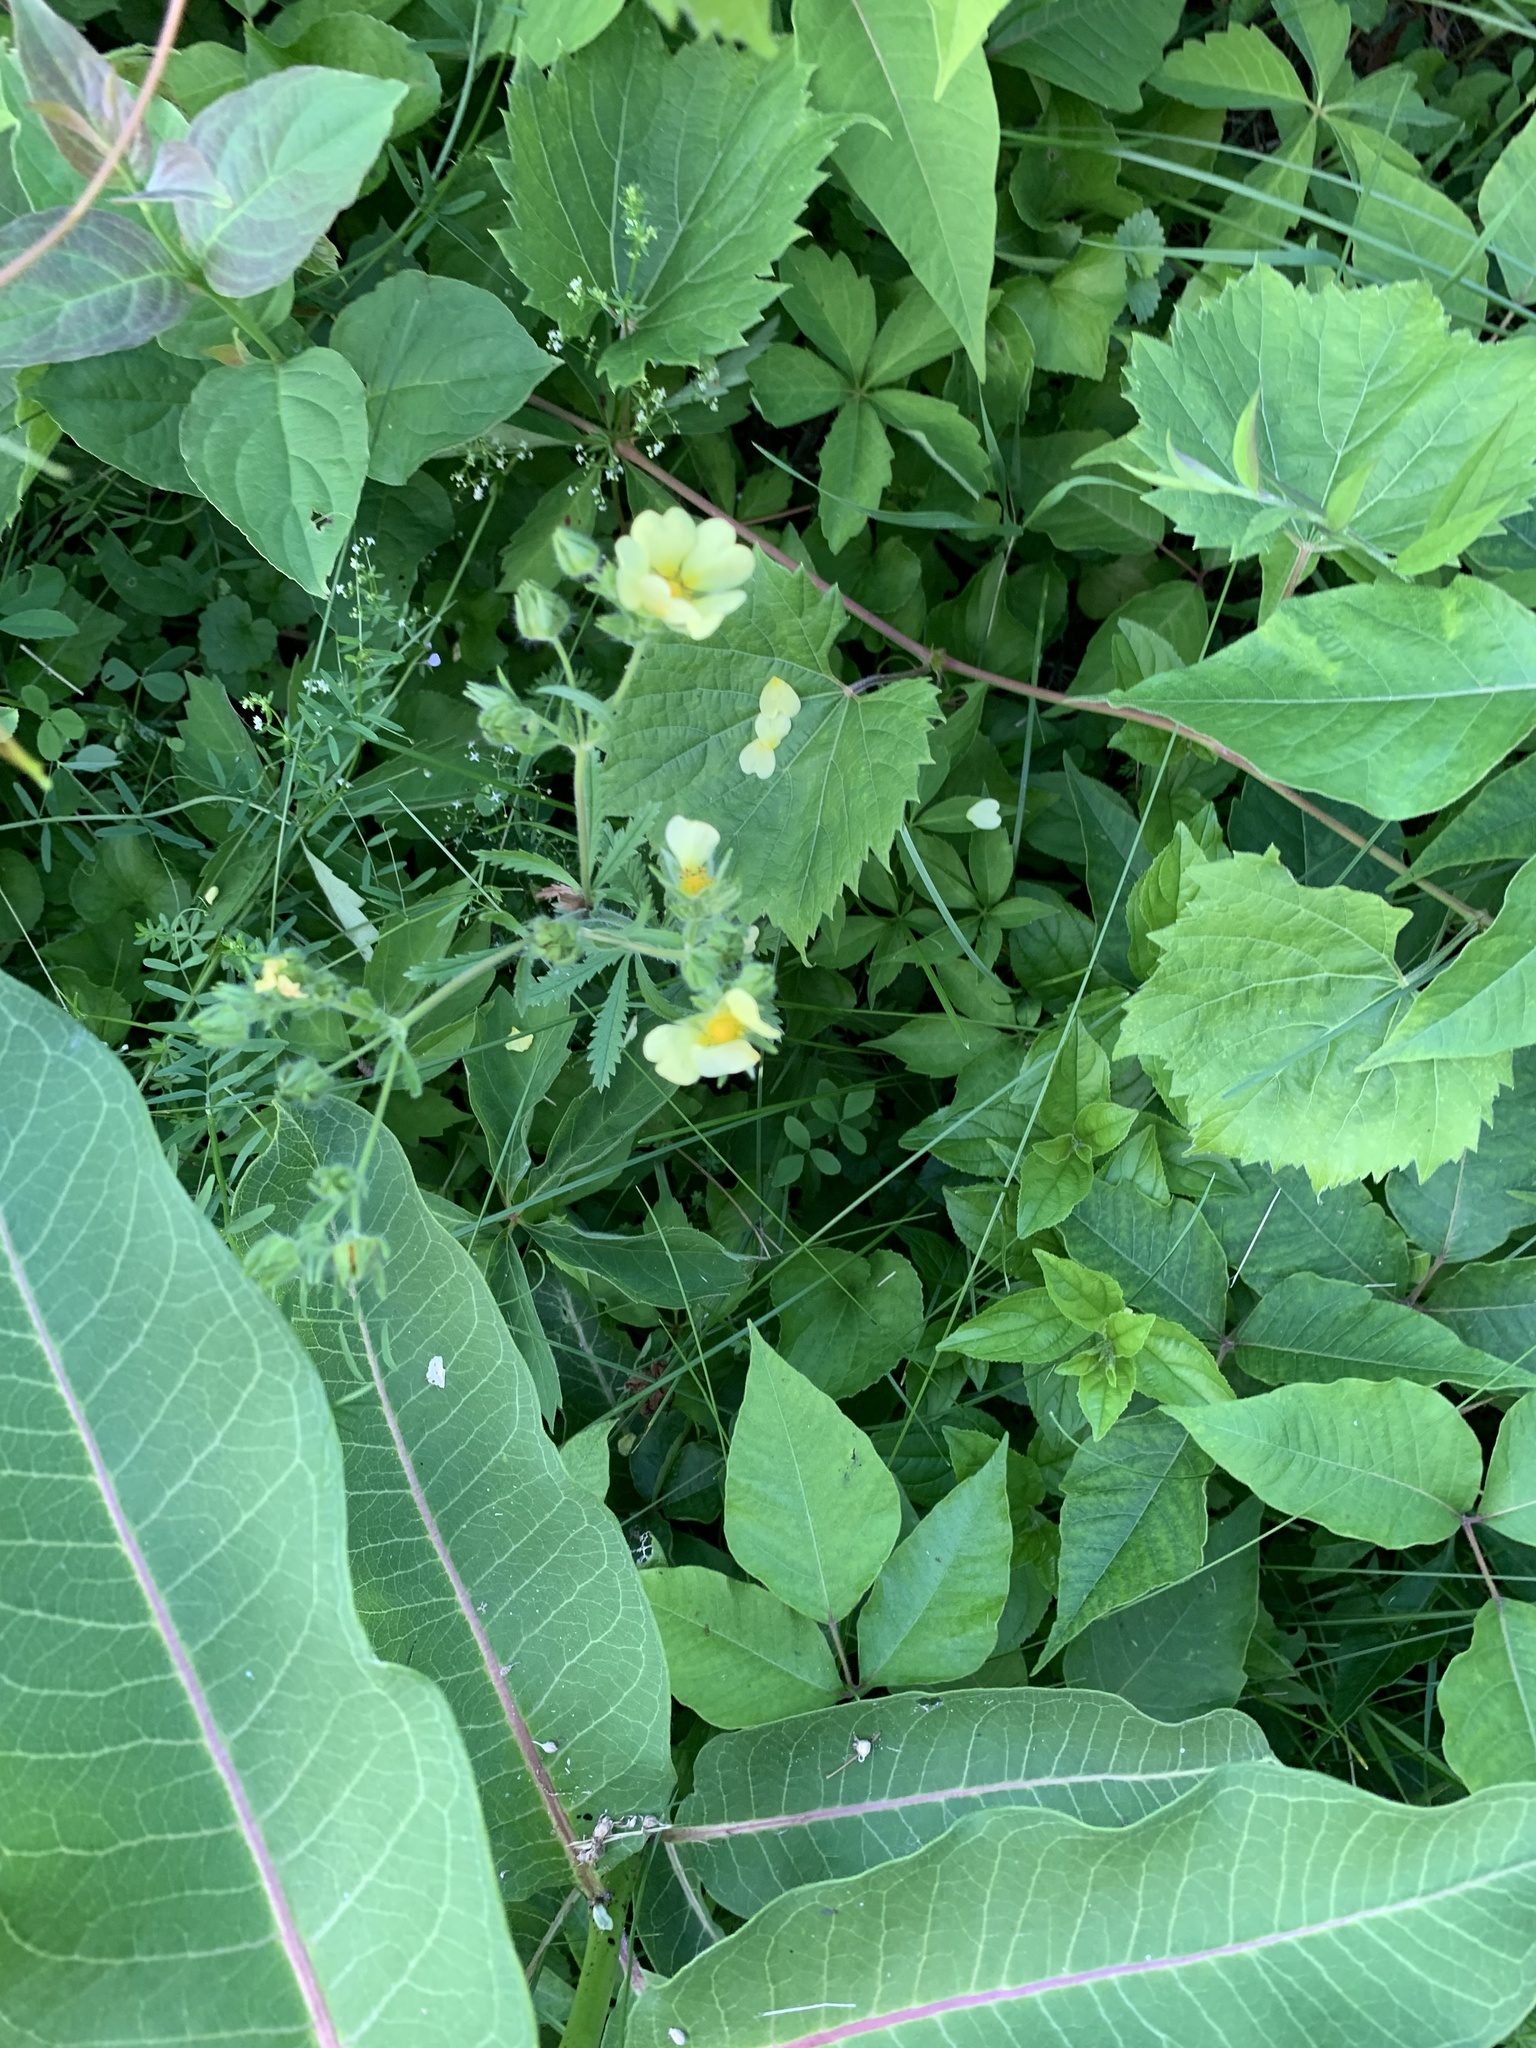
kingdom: Plantae
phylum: Tracheophyta
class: Magnoliopsida
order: Rosales
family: Rosaceae
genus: Potentilla
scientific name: Potentilla recta
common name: Sulphur cinquefoil
